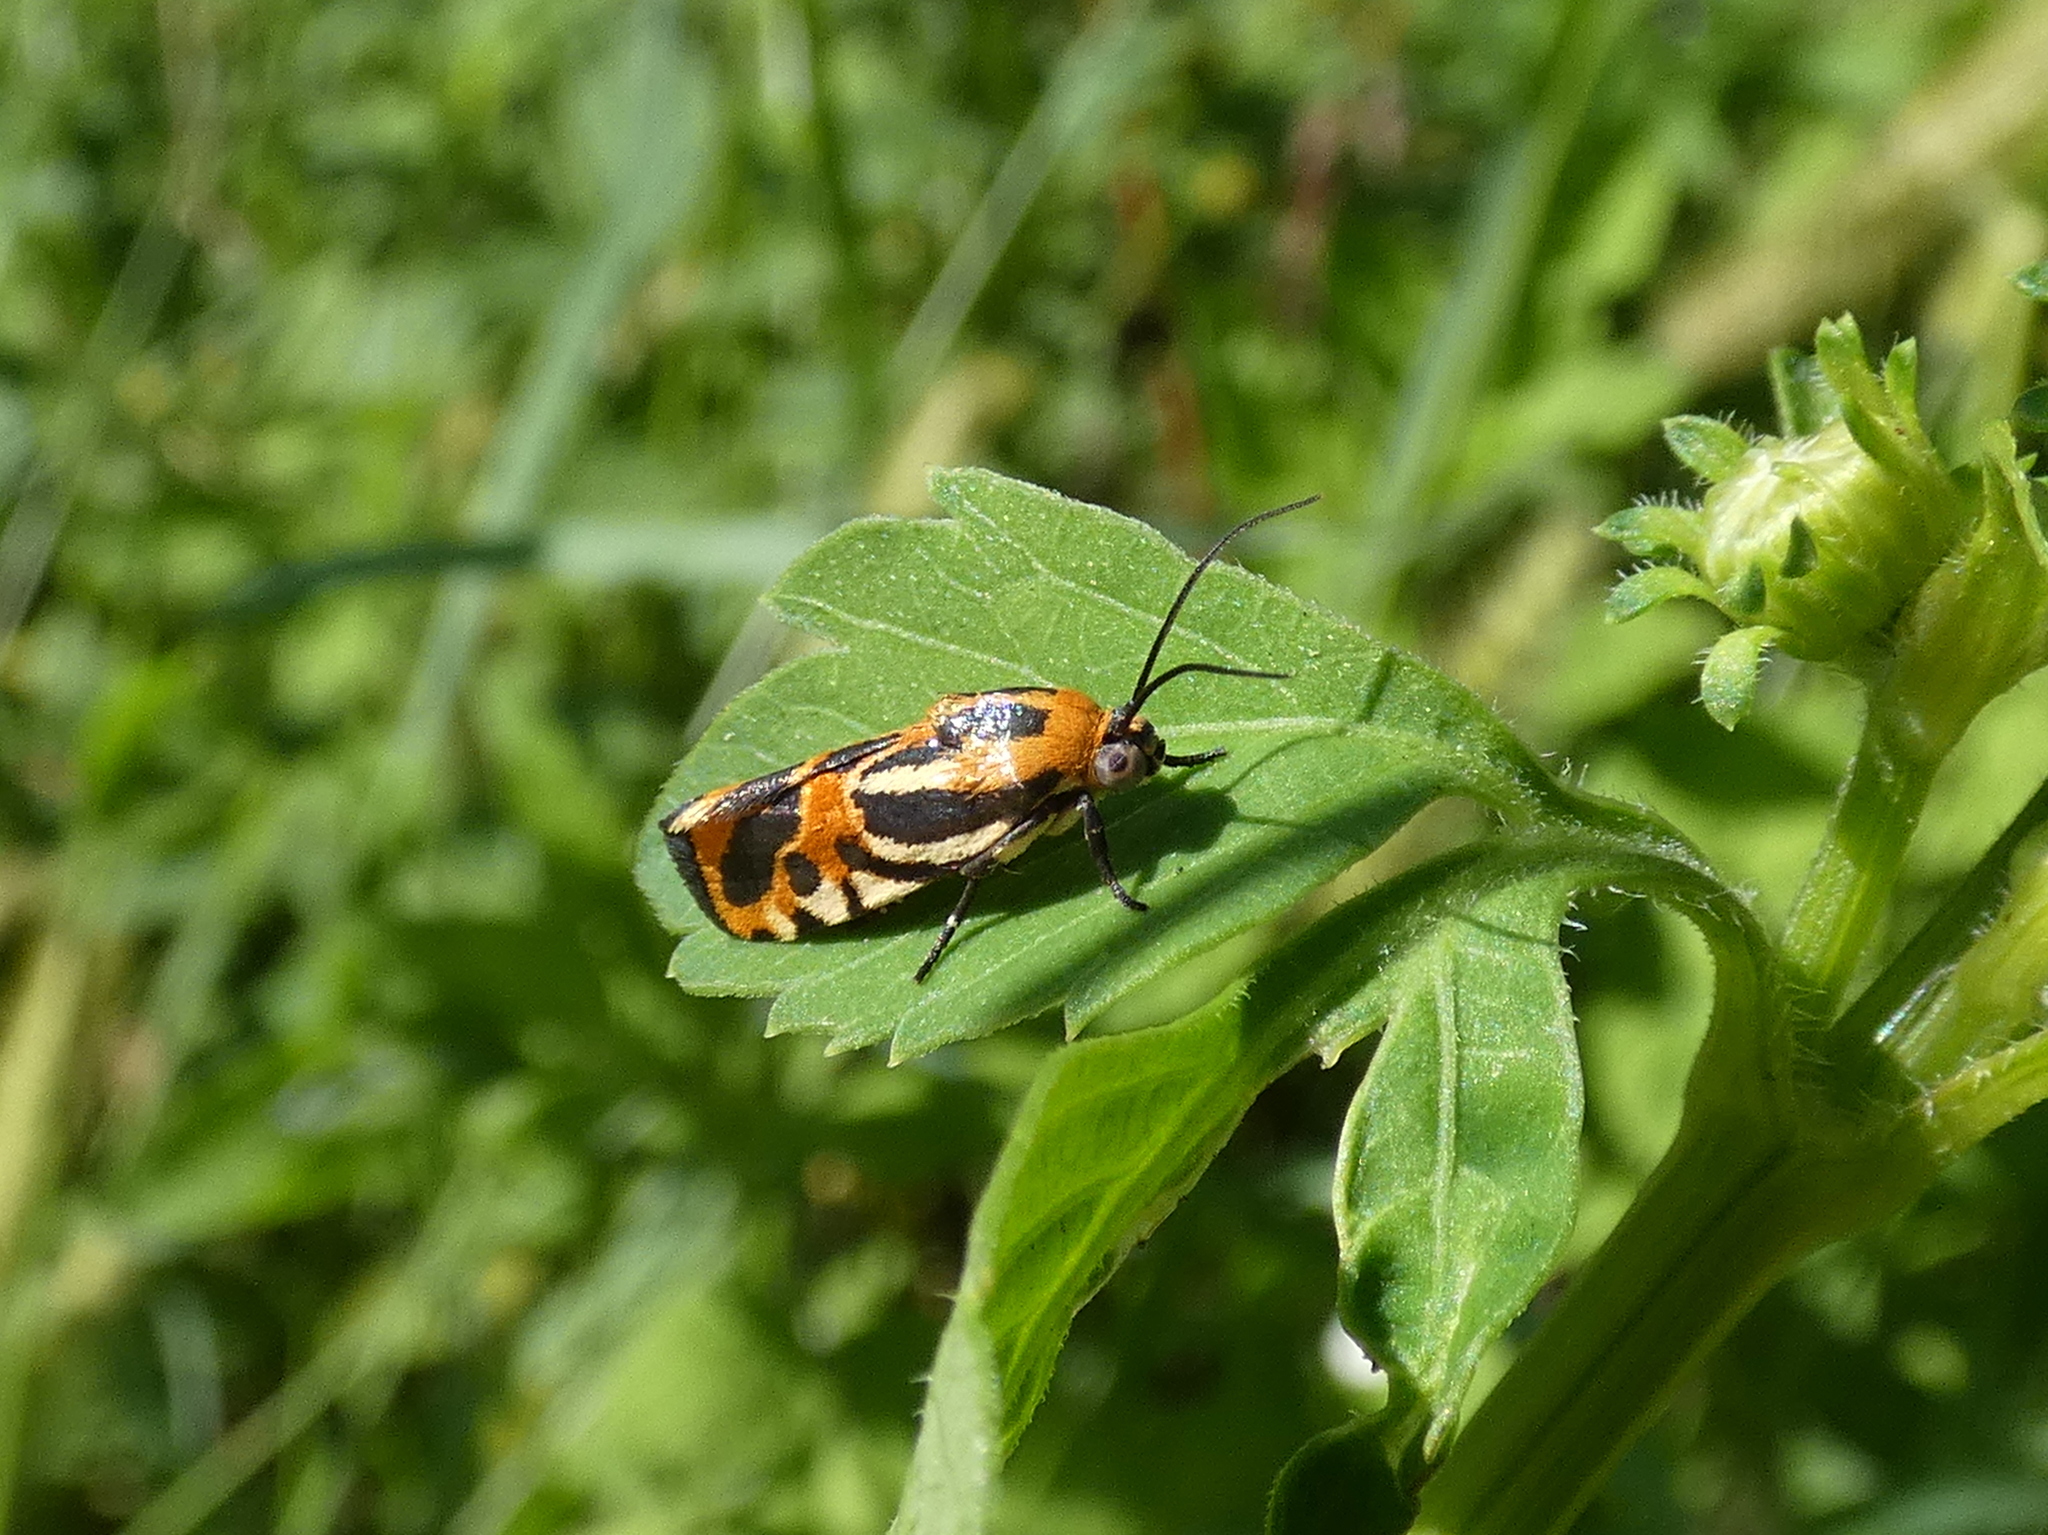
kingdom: Animalia
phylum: Arthropoda
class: Insecta
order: Lepidoptera
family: Noctuidae
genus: Acontia
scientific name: Acontia onagrus
